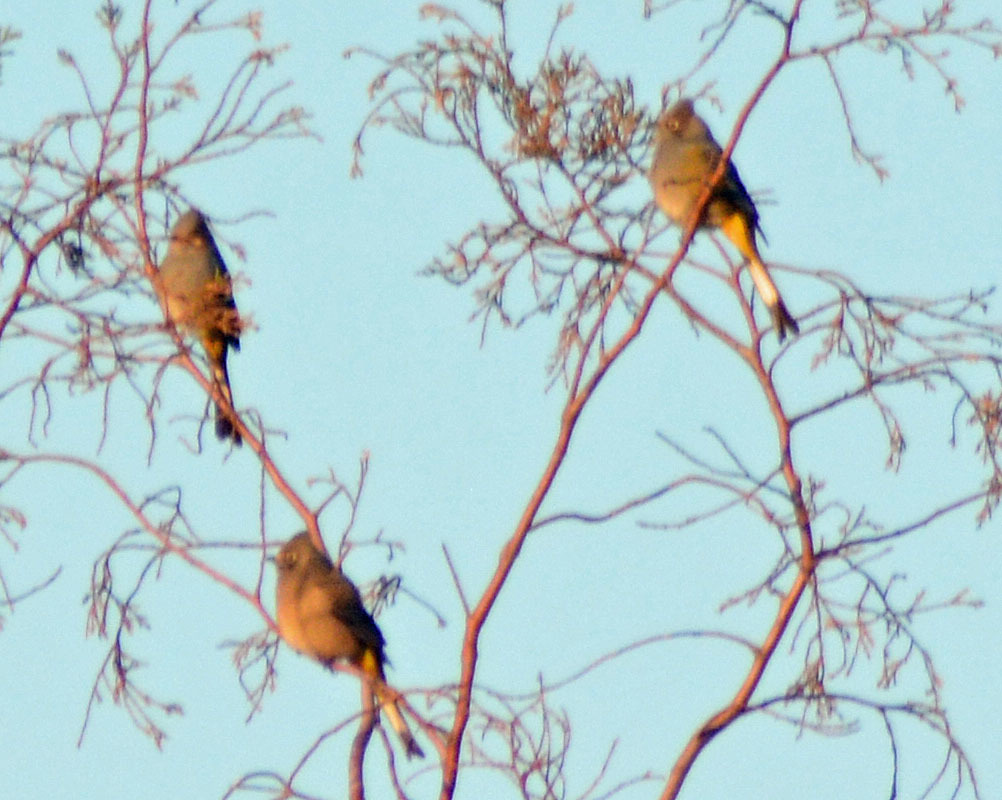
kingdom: Animalia
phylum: Chordata
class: Aves
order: Passeriformes
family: Ptilogonatidae
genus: Ptilogonys
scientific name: Ptilogonys cinereus
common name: Gray silky-flycatcher
